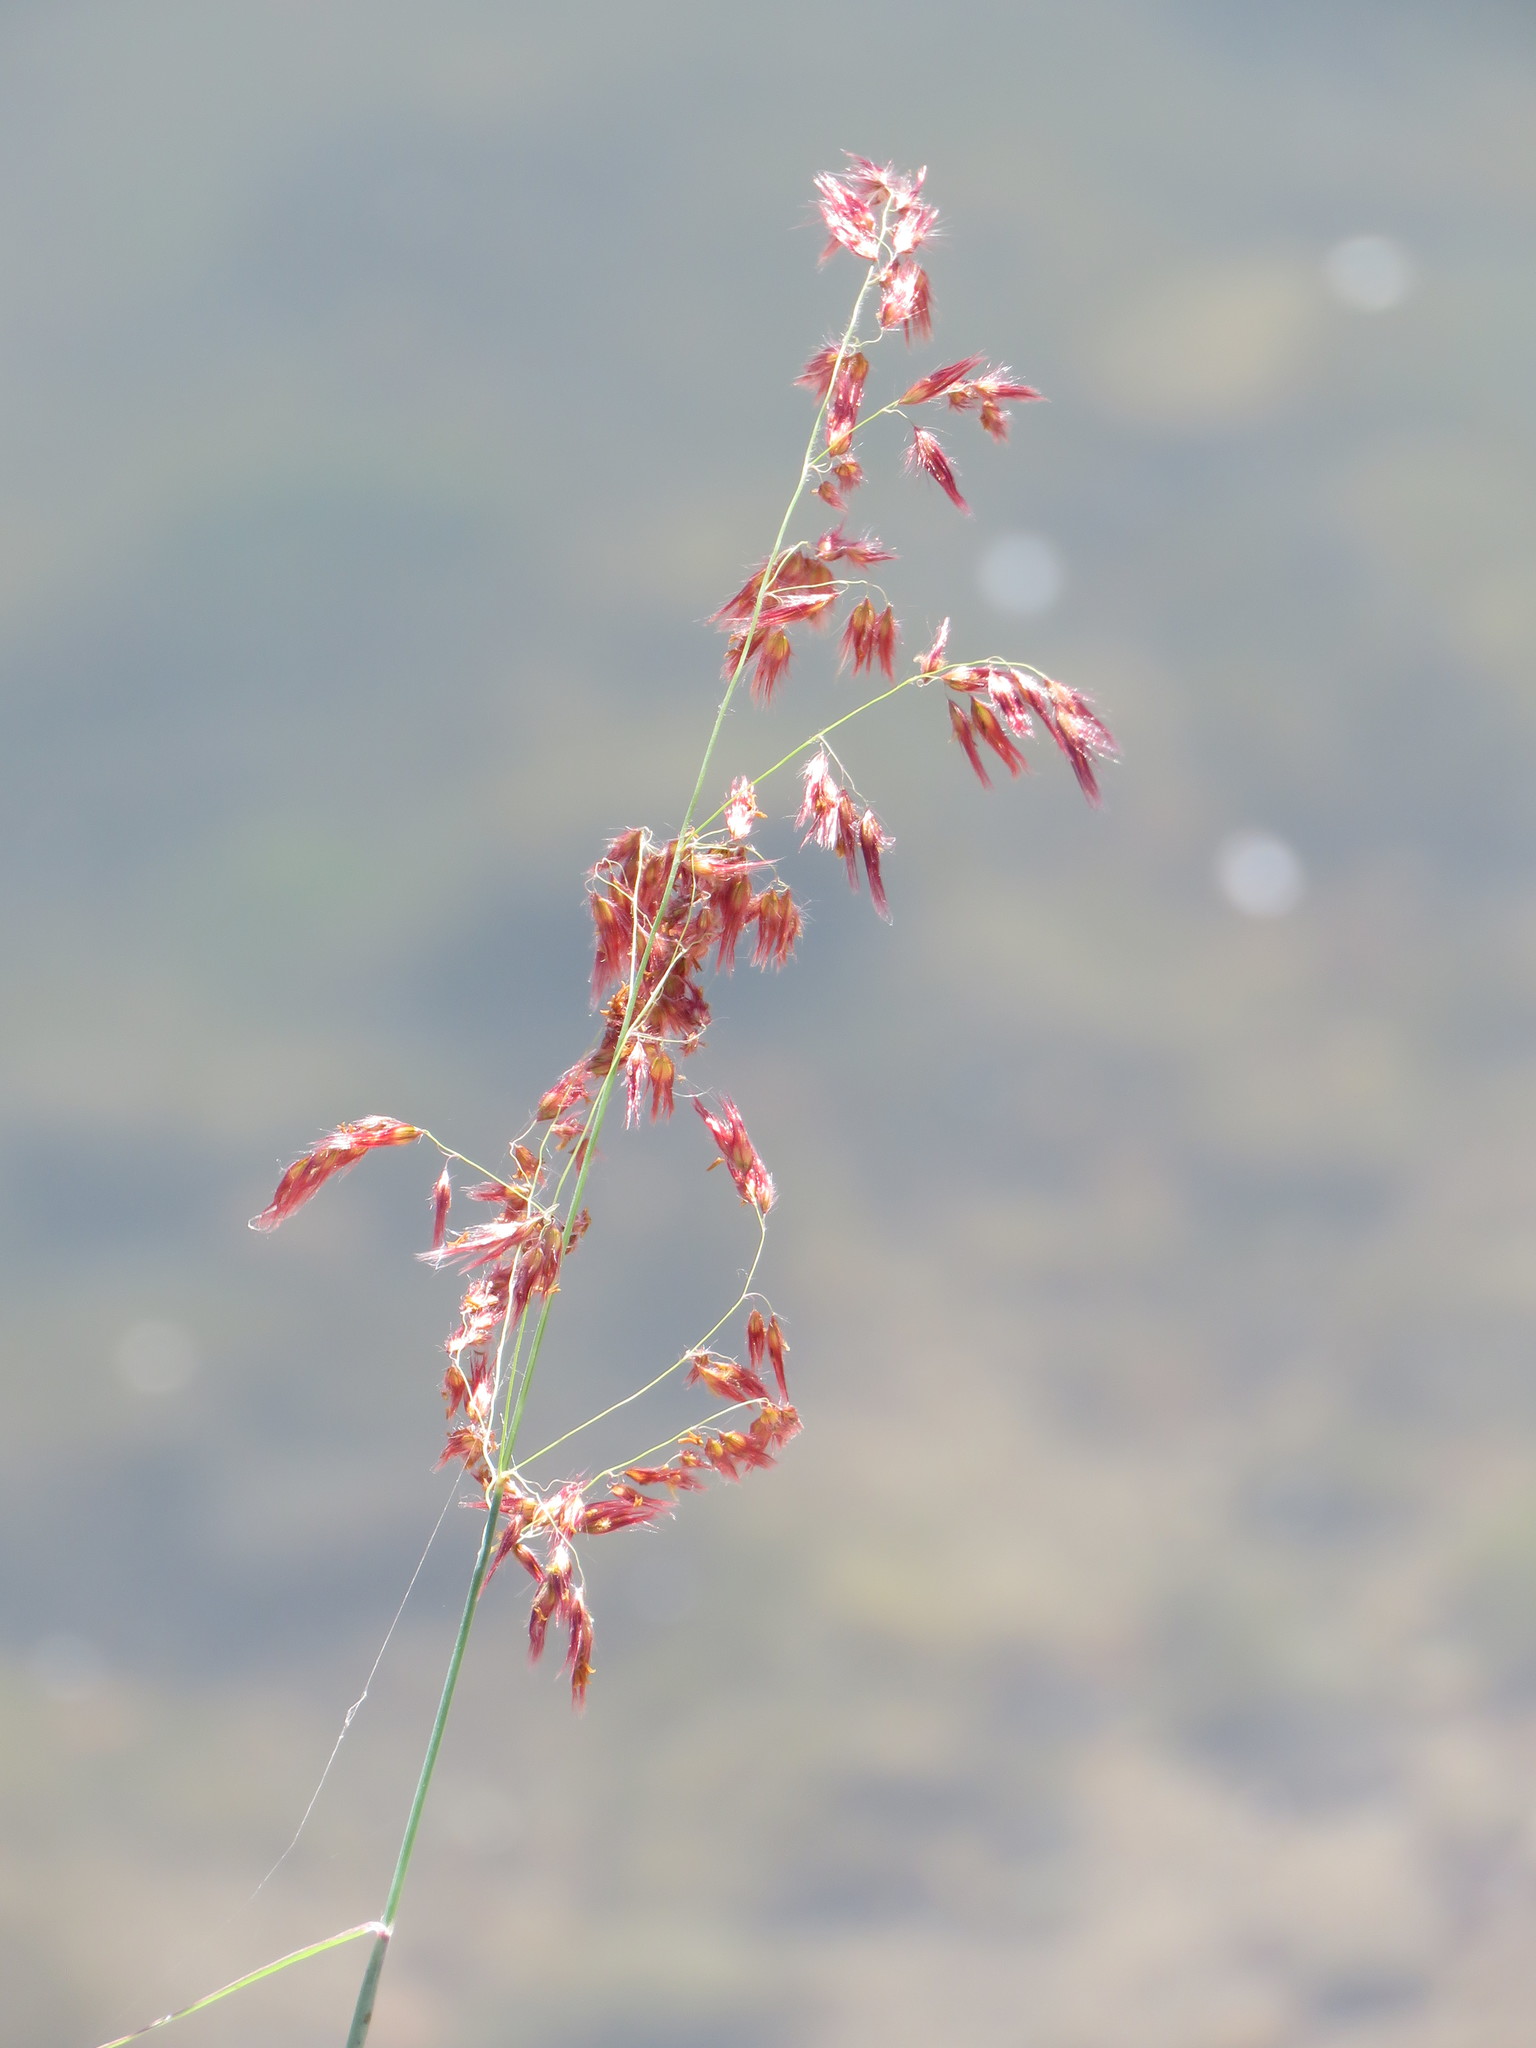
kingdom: Plantae
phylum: Tracheophyta
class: Liliopsida
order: Poales
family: Poaceae
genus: Melinis
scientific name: Melinis repens
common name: Rose natal grass
